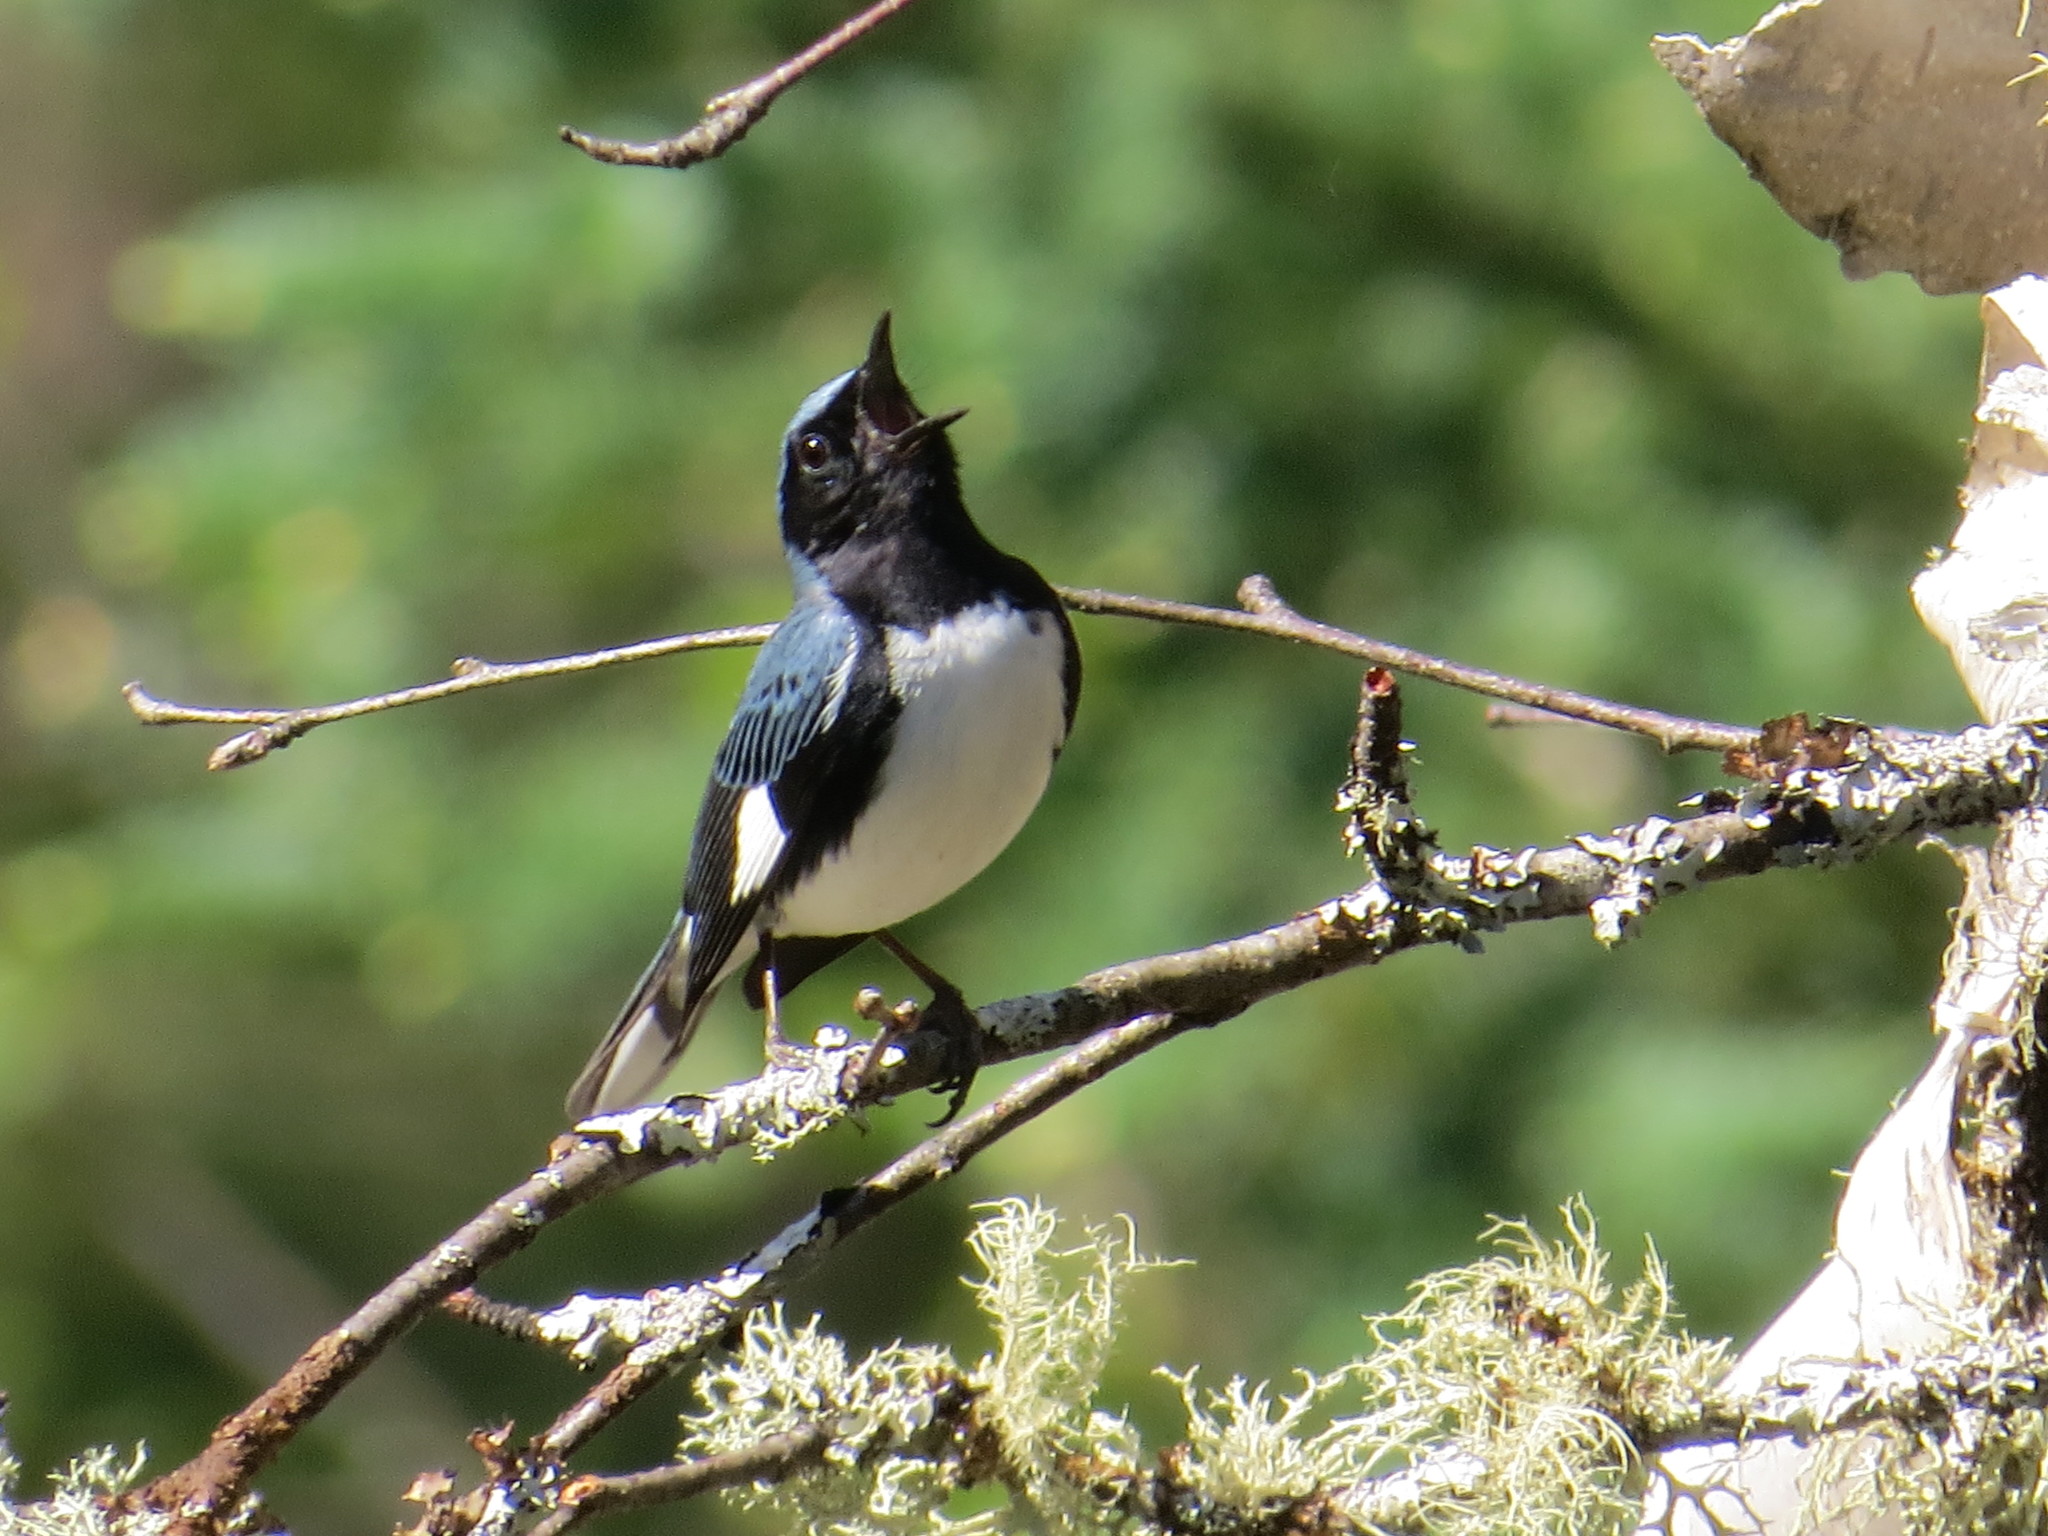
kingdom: Animalia
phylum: Chordata
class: Aves
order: Passeriformes
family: Parulidae
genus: Setophaga
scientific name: Setophaga caerulescens
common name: Black-throated blue warbler
